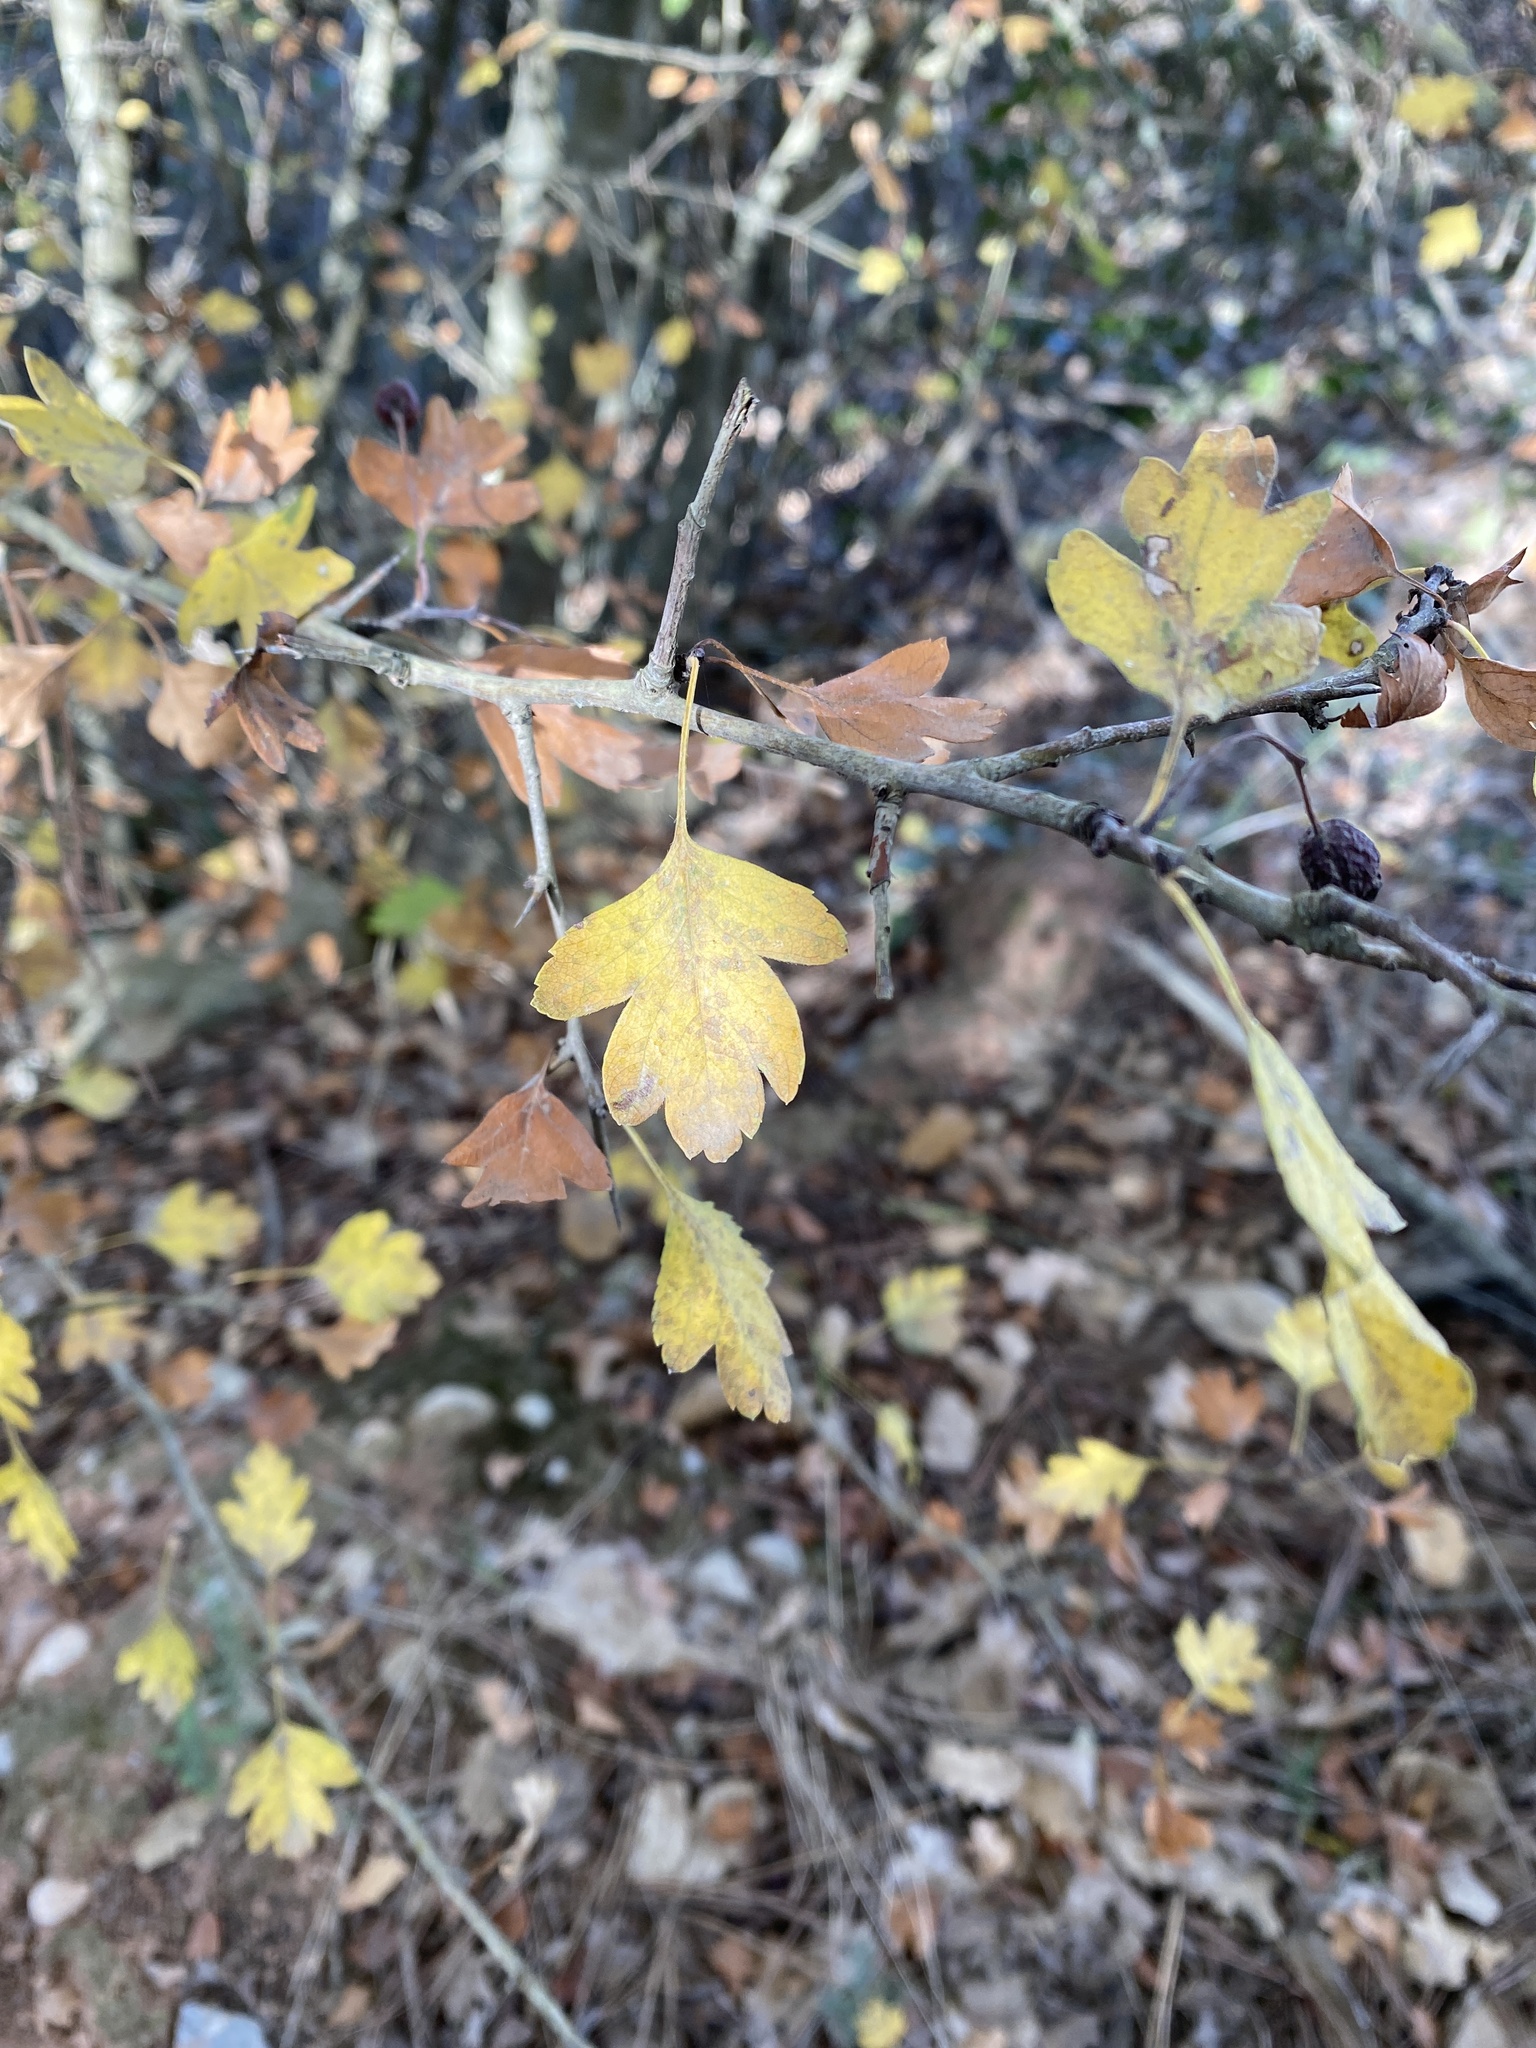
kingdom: Plantae
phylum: Tracheophyta
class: Magnoliopsida
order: Rosales
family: Rosaceae
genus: Crataegus
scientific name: Crataegus monogyna
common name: Hawthorn
